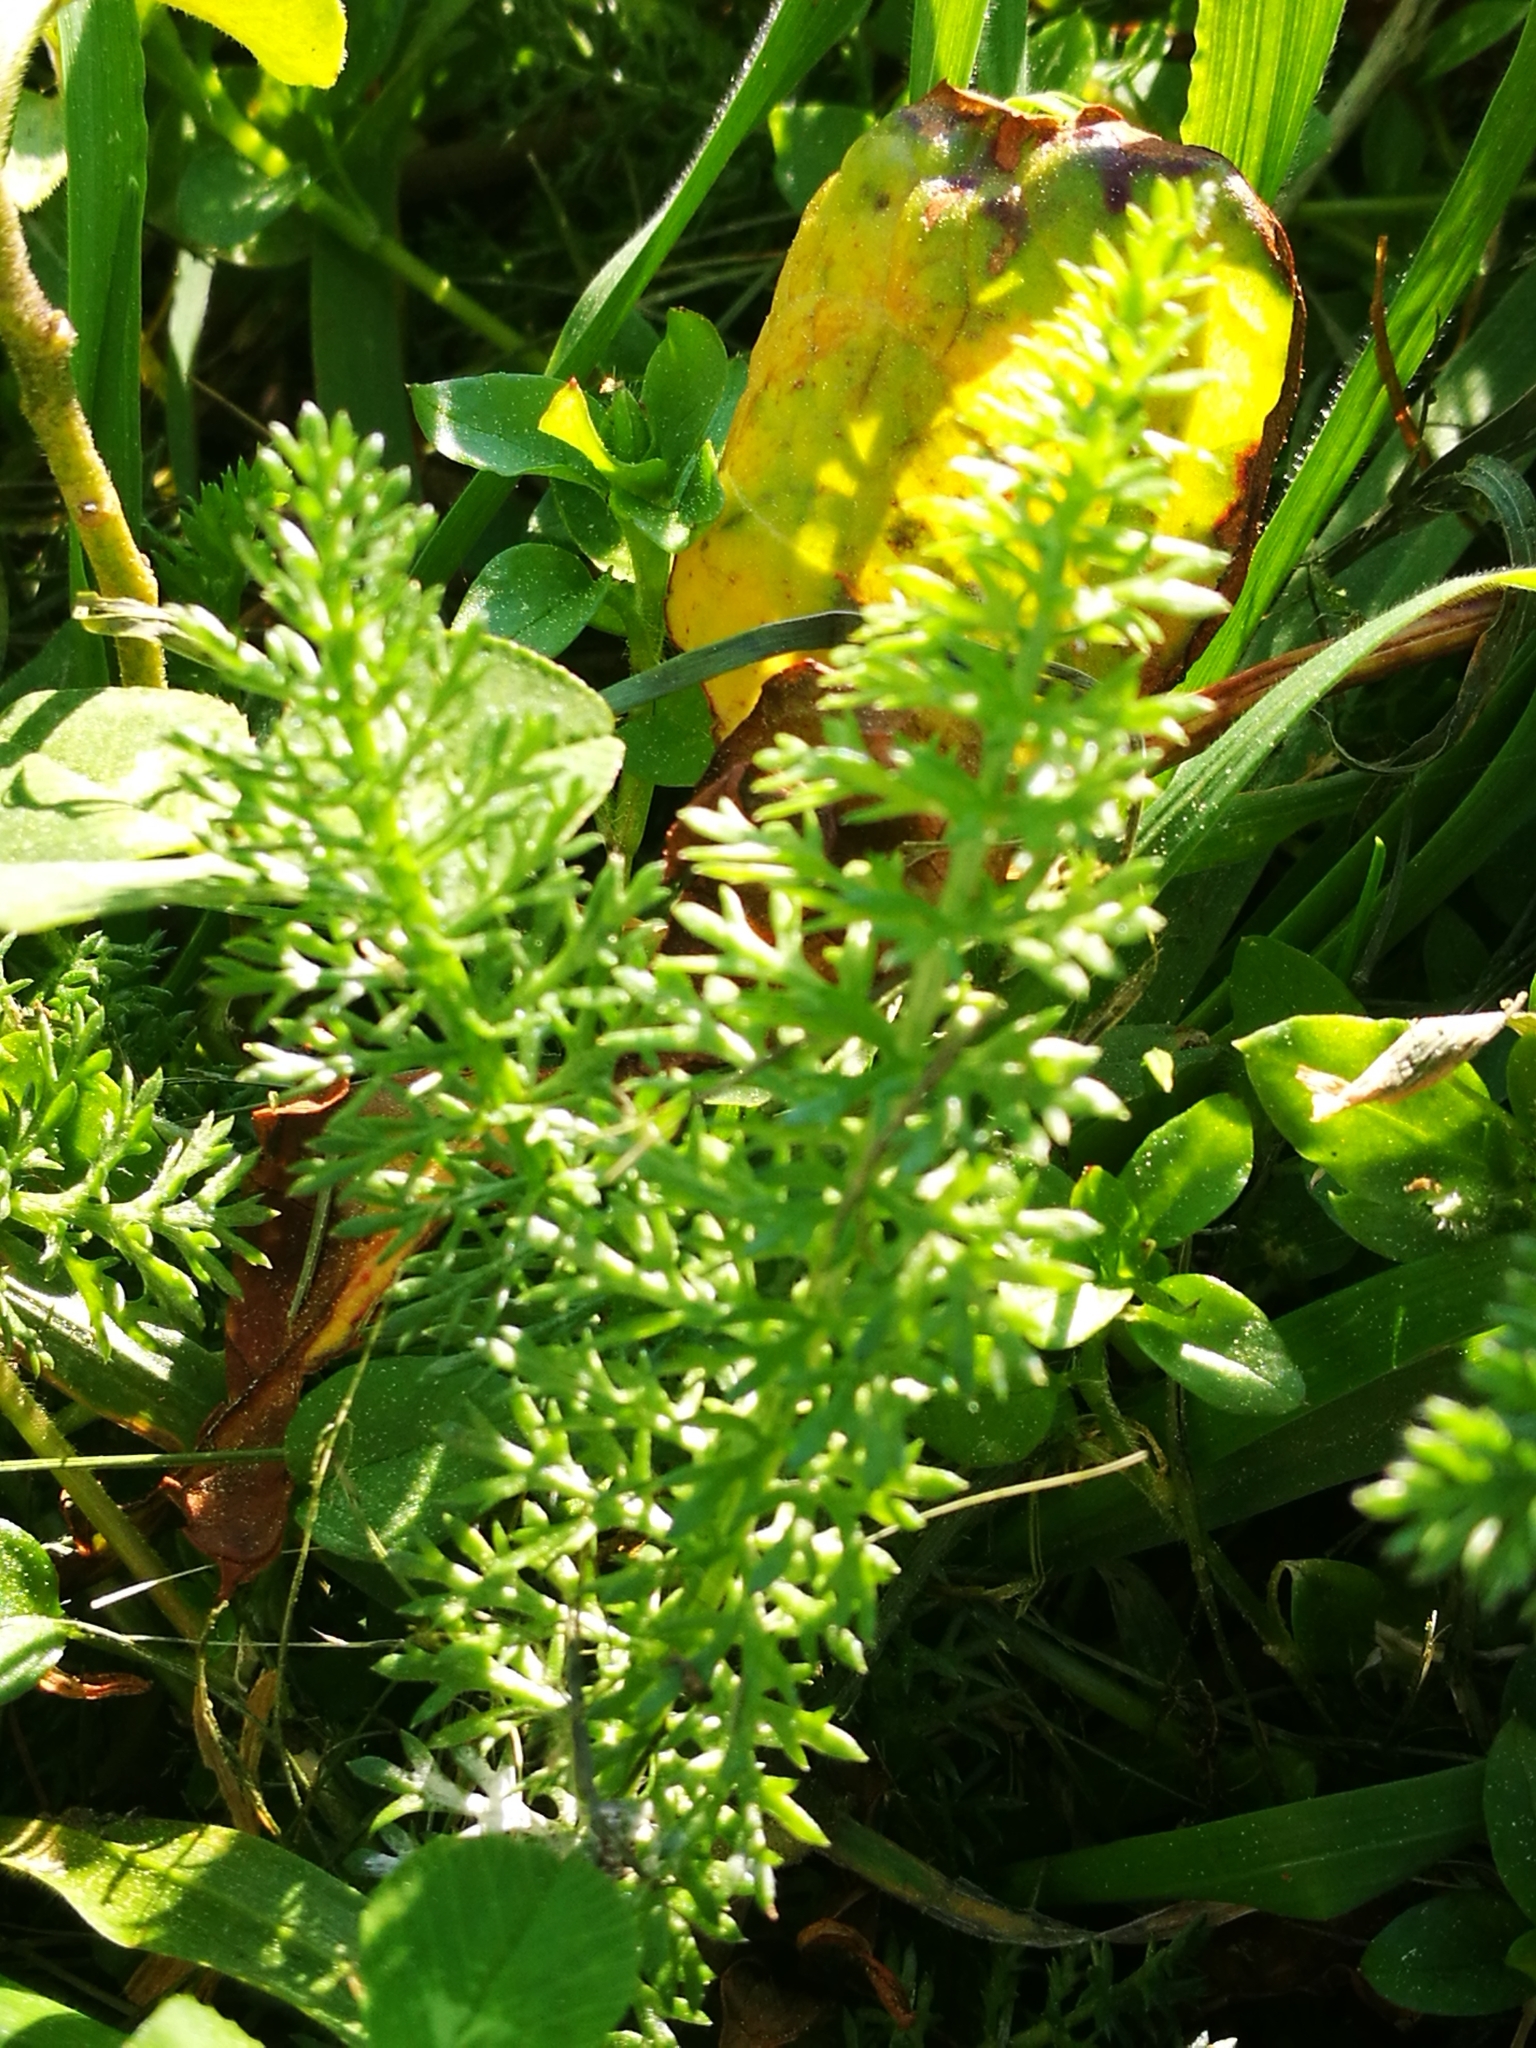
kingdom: Plantae
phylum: Tracheophyta
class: Magnoliopsida
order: Asterales
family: Asteraceae
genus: Achillea
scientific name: Achillea millefolium
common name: Yarrow
